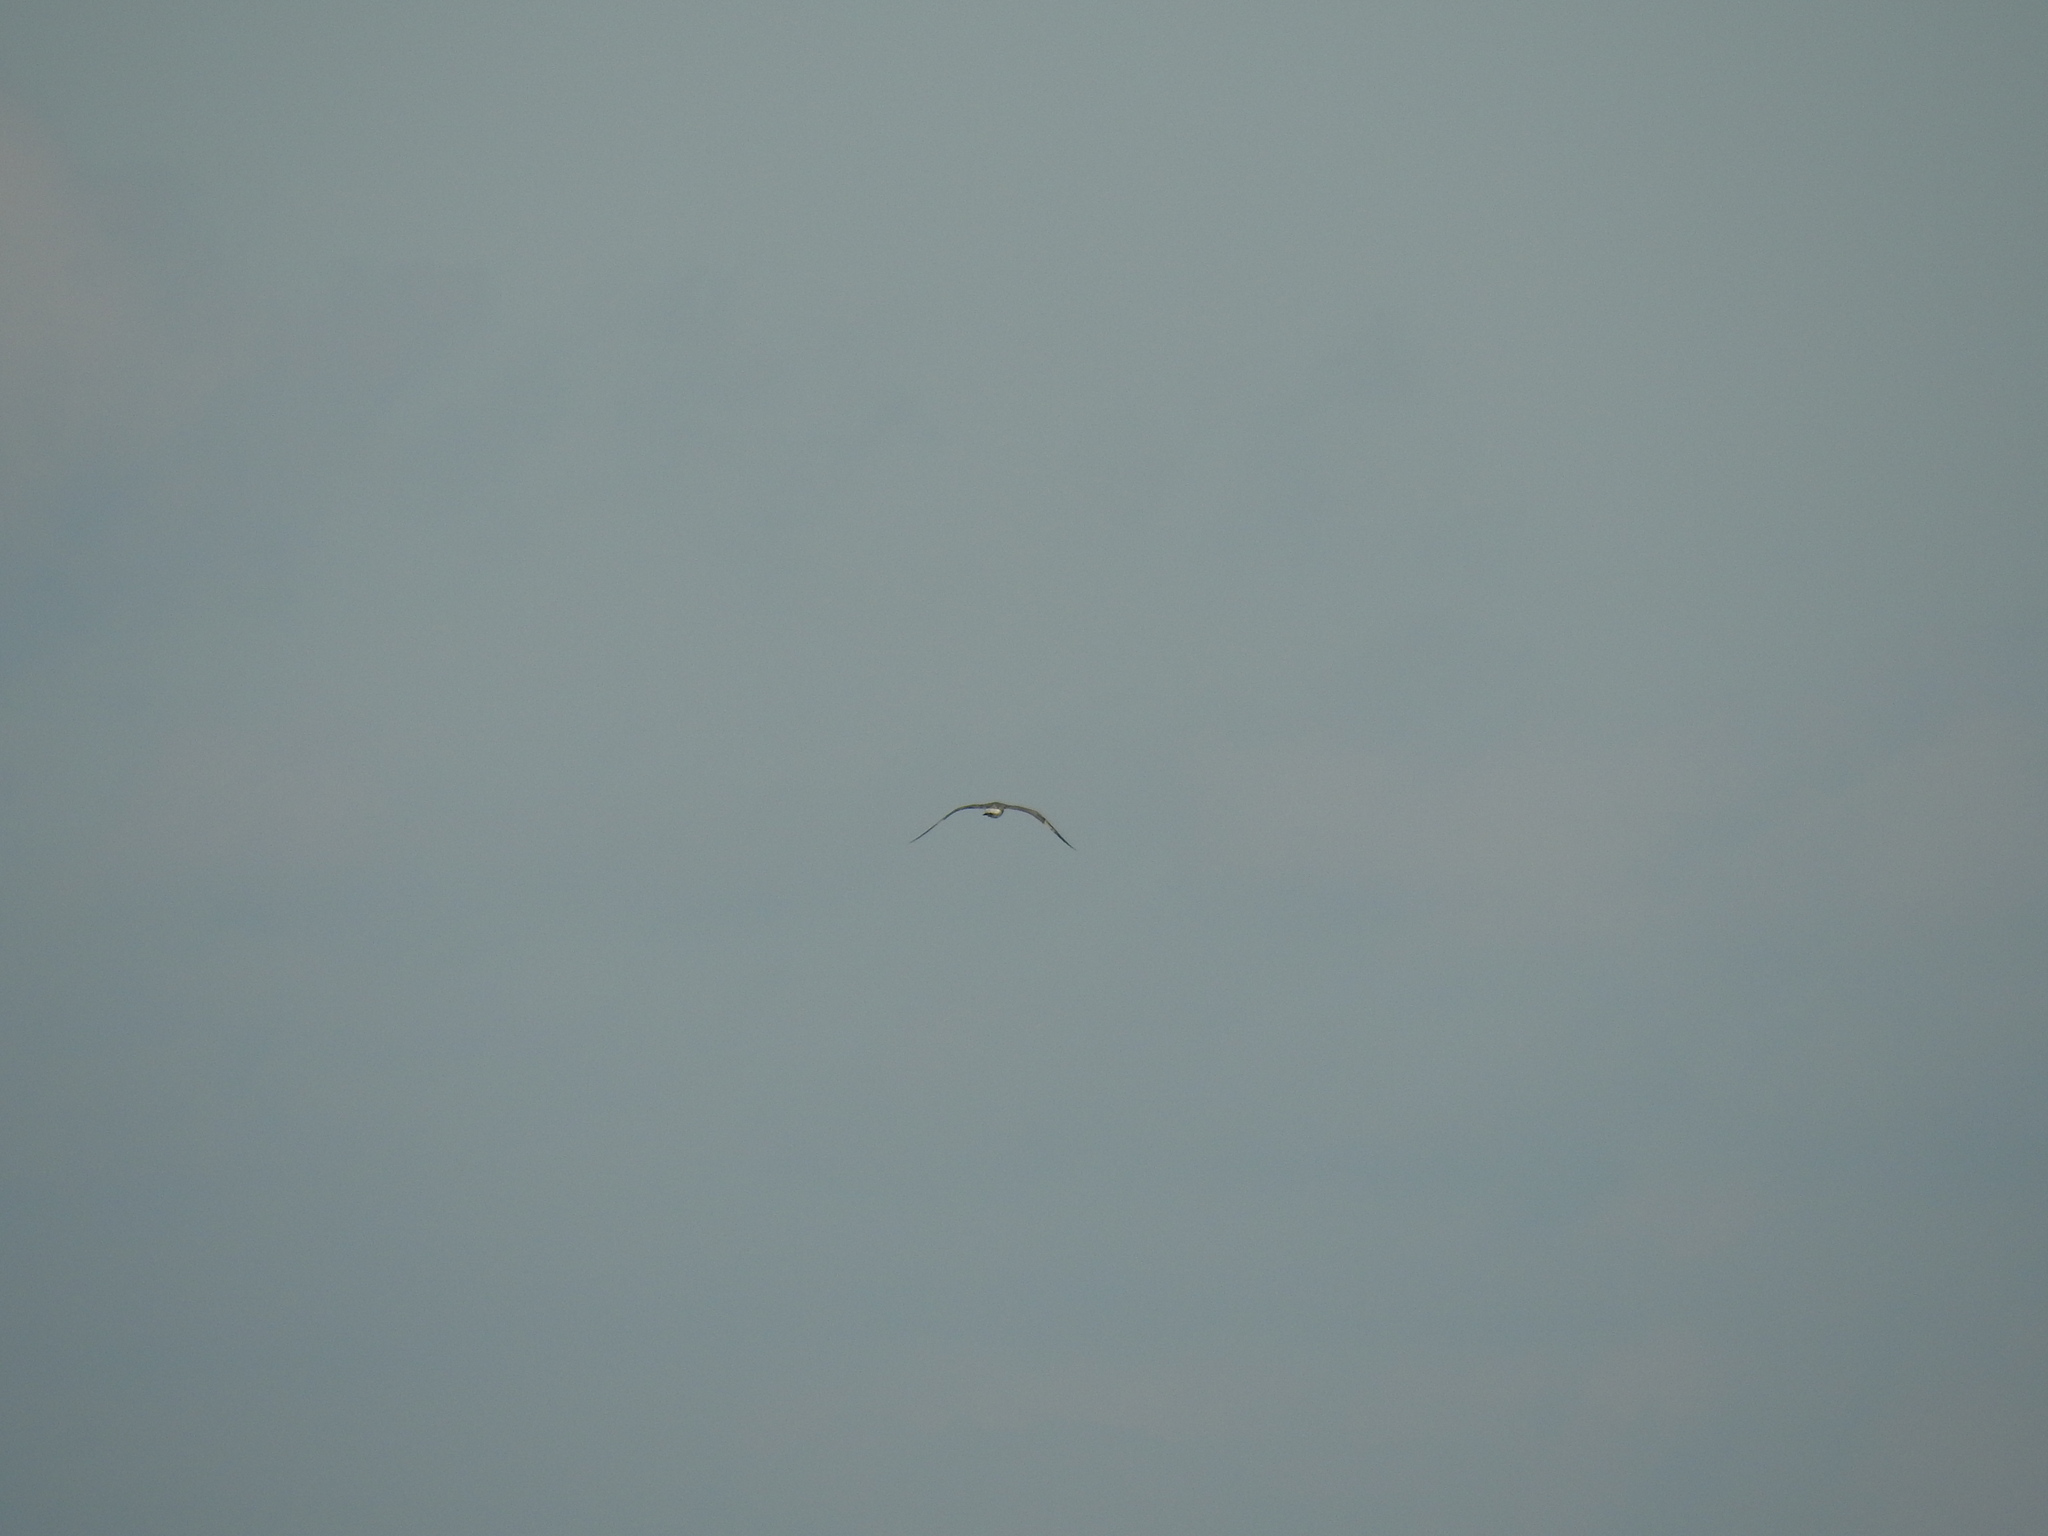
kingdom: Animalia
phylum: Chordata
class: Aves
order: Charadriiformes
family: Laridae
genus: Larus
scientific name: Larus michahellis
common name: Yellow-legged gull
